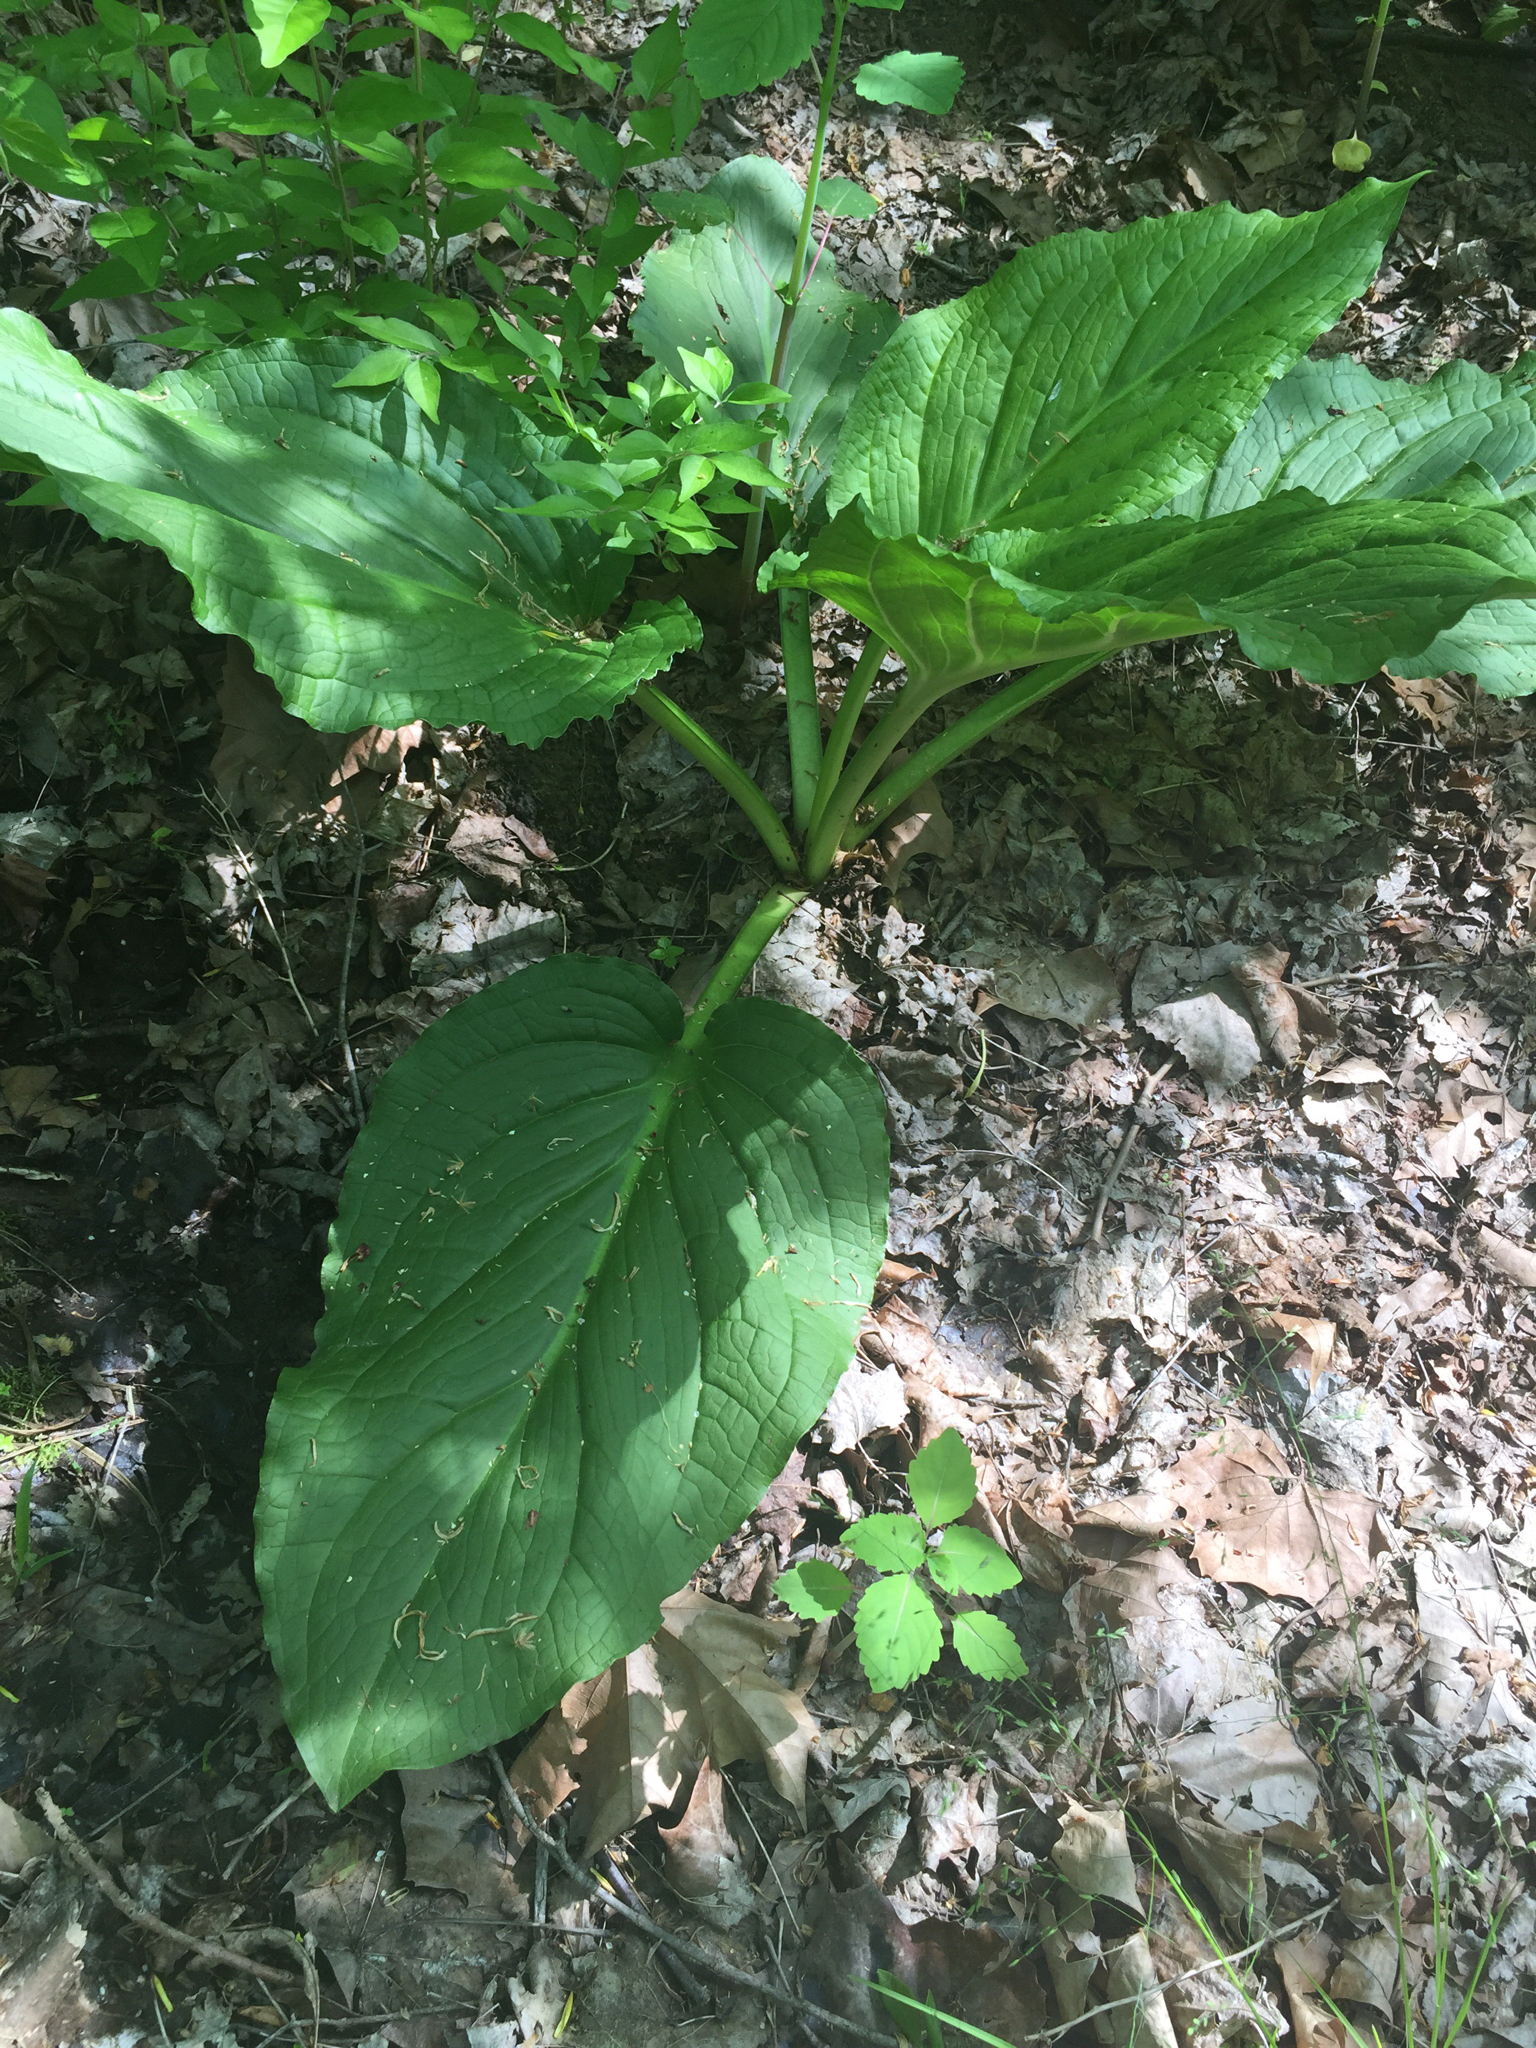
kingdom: Plantae
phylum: Tracheophyta
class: Liliopsida
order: Alismatales
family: Araceae
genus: Symplocarpus
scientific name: Symplocarpus foetidus
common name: Eastern skunk cabbage
